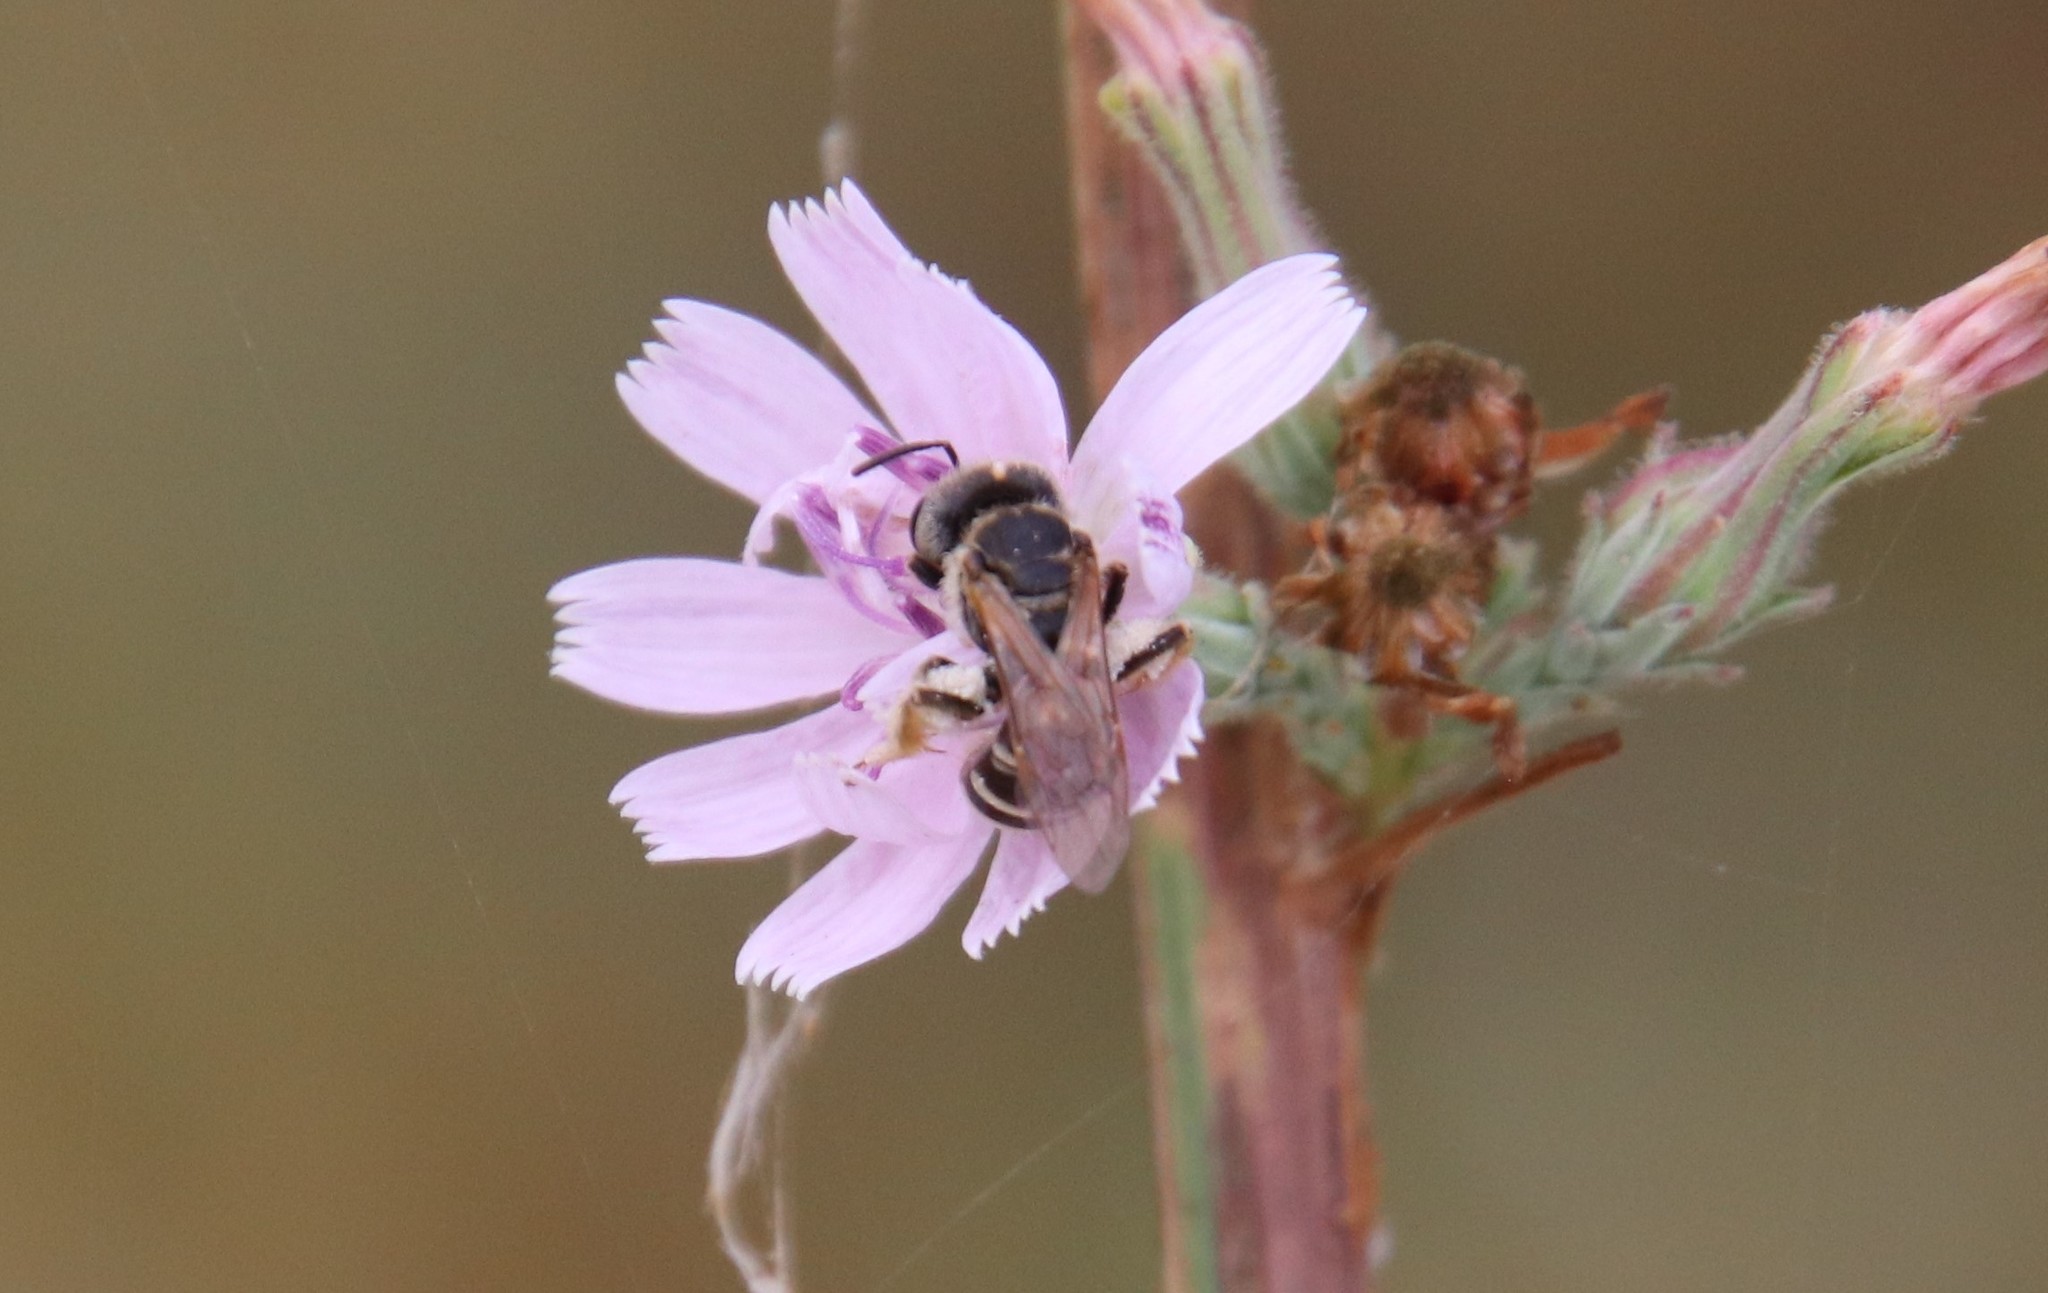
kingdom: Animalia
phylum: Arthropoda
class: Insecta
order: Hymenoptera
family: Halictidae
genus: Halictus
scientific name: Halictus ligatus
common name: Ligated furrow bee
